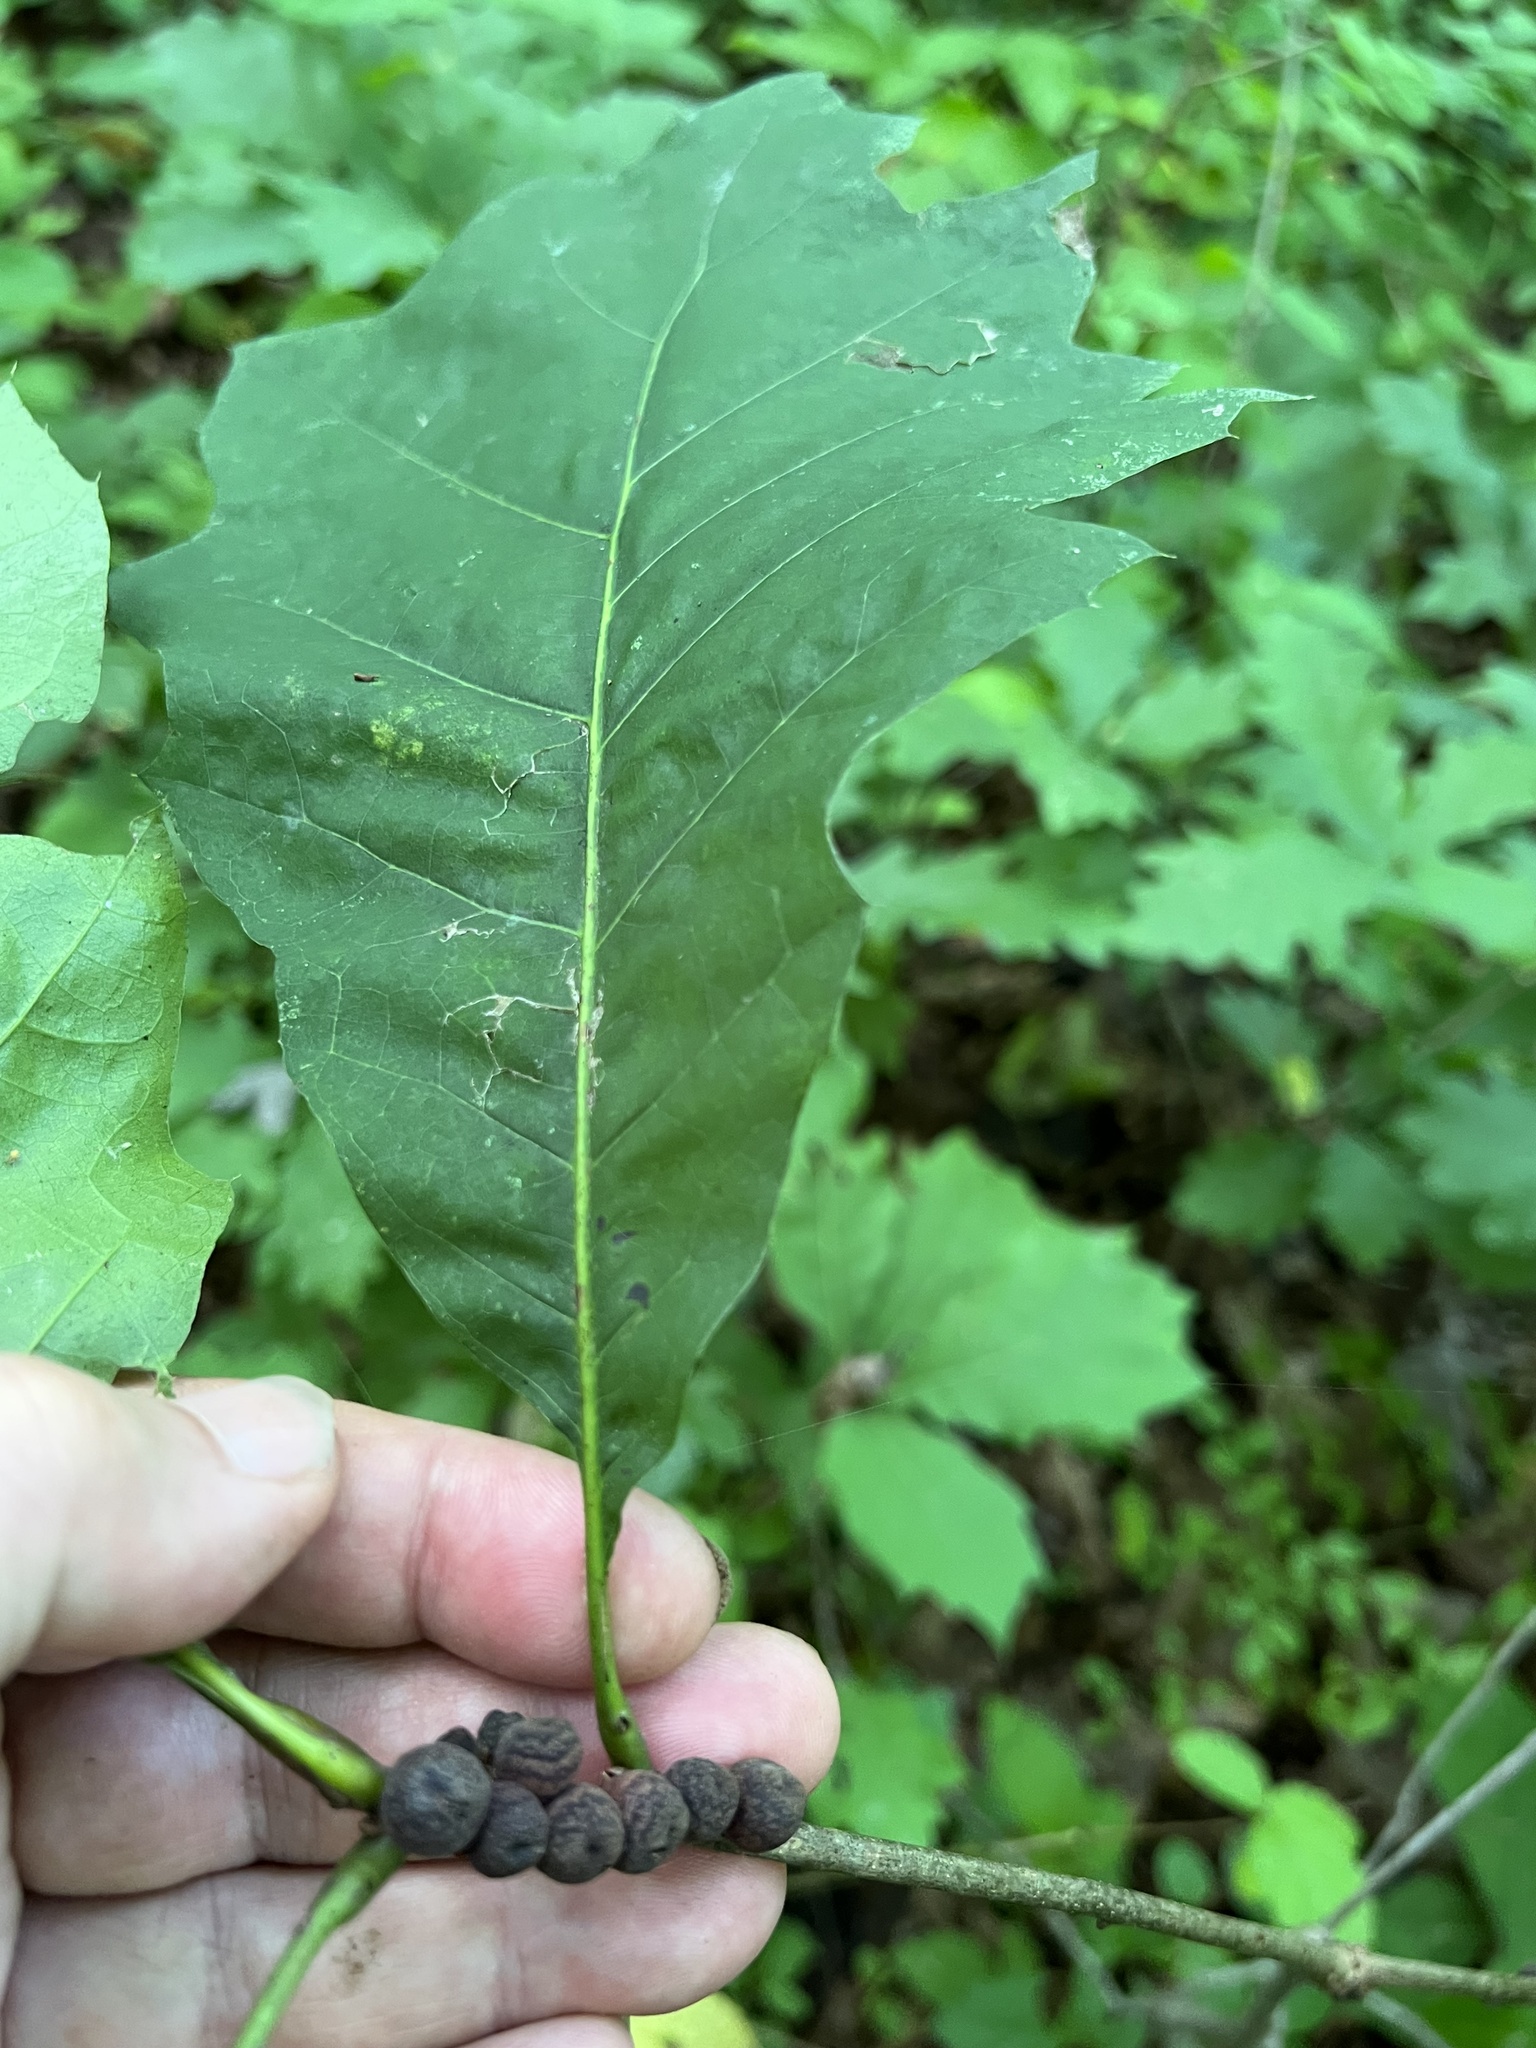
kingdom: Animalia
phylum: Arthropoda
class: Insecta
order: Hymenoptera
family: Cynipidae
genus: Kokkocynips
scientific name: Kokkocynips imbricariae
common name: Banded bullet gall wasp
